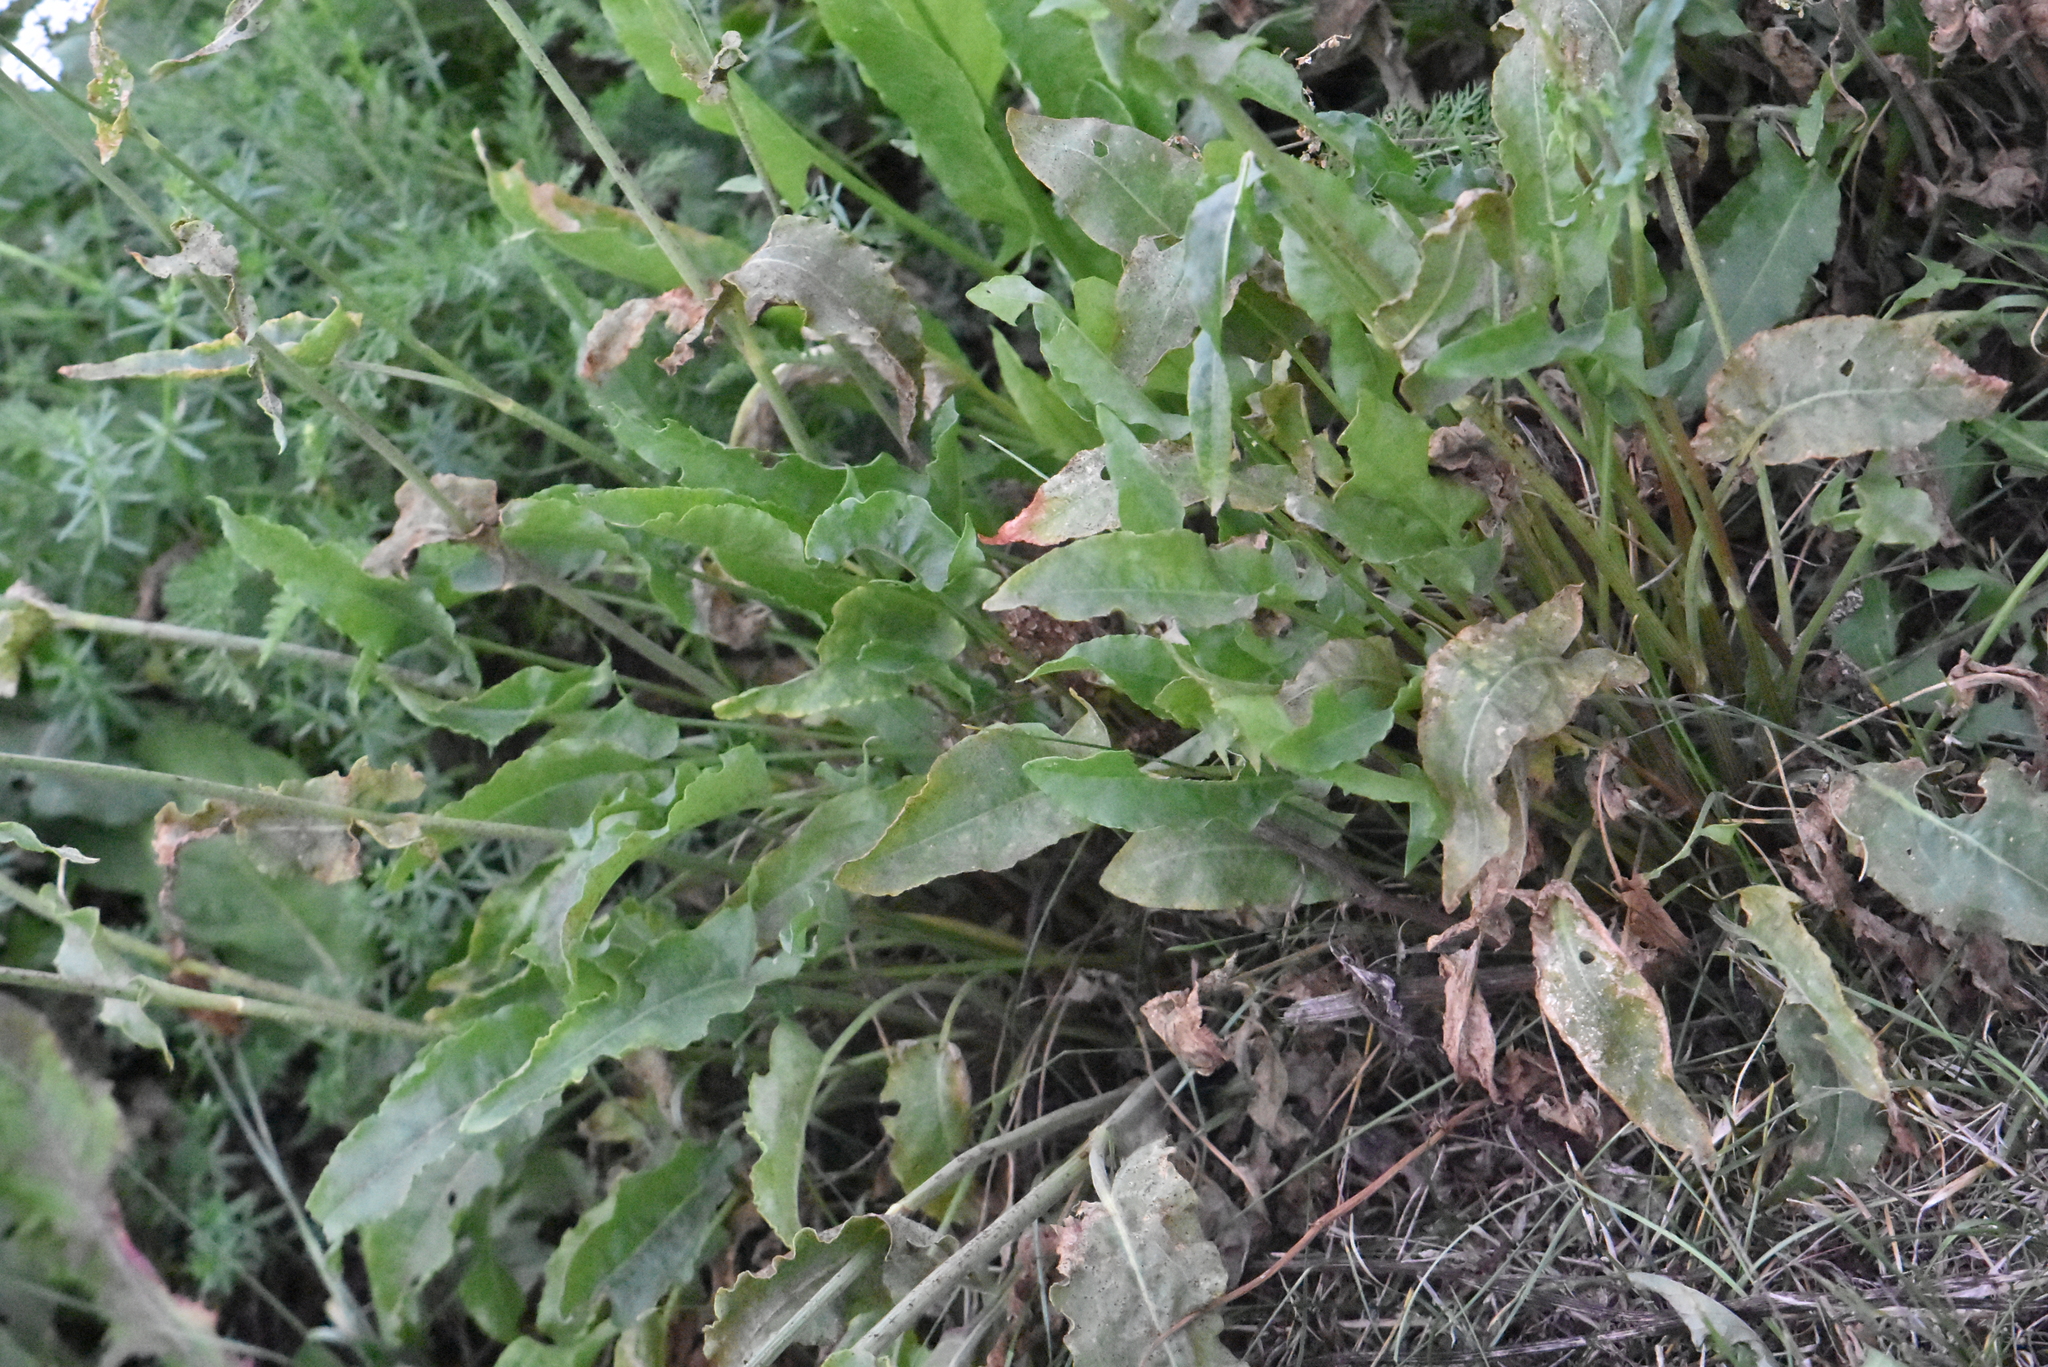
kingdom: Plantae
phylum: Tracheophyta
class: Magnoliopsida
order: Caryophyllales
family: Polygonaceae
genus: Rumex
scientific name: Rumex thyrsiflorus
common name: Garden sorrel
